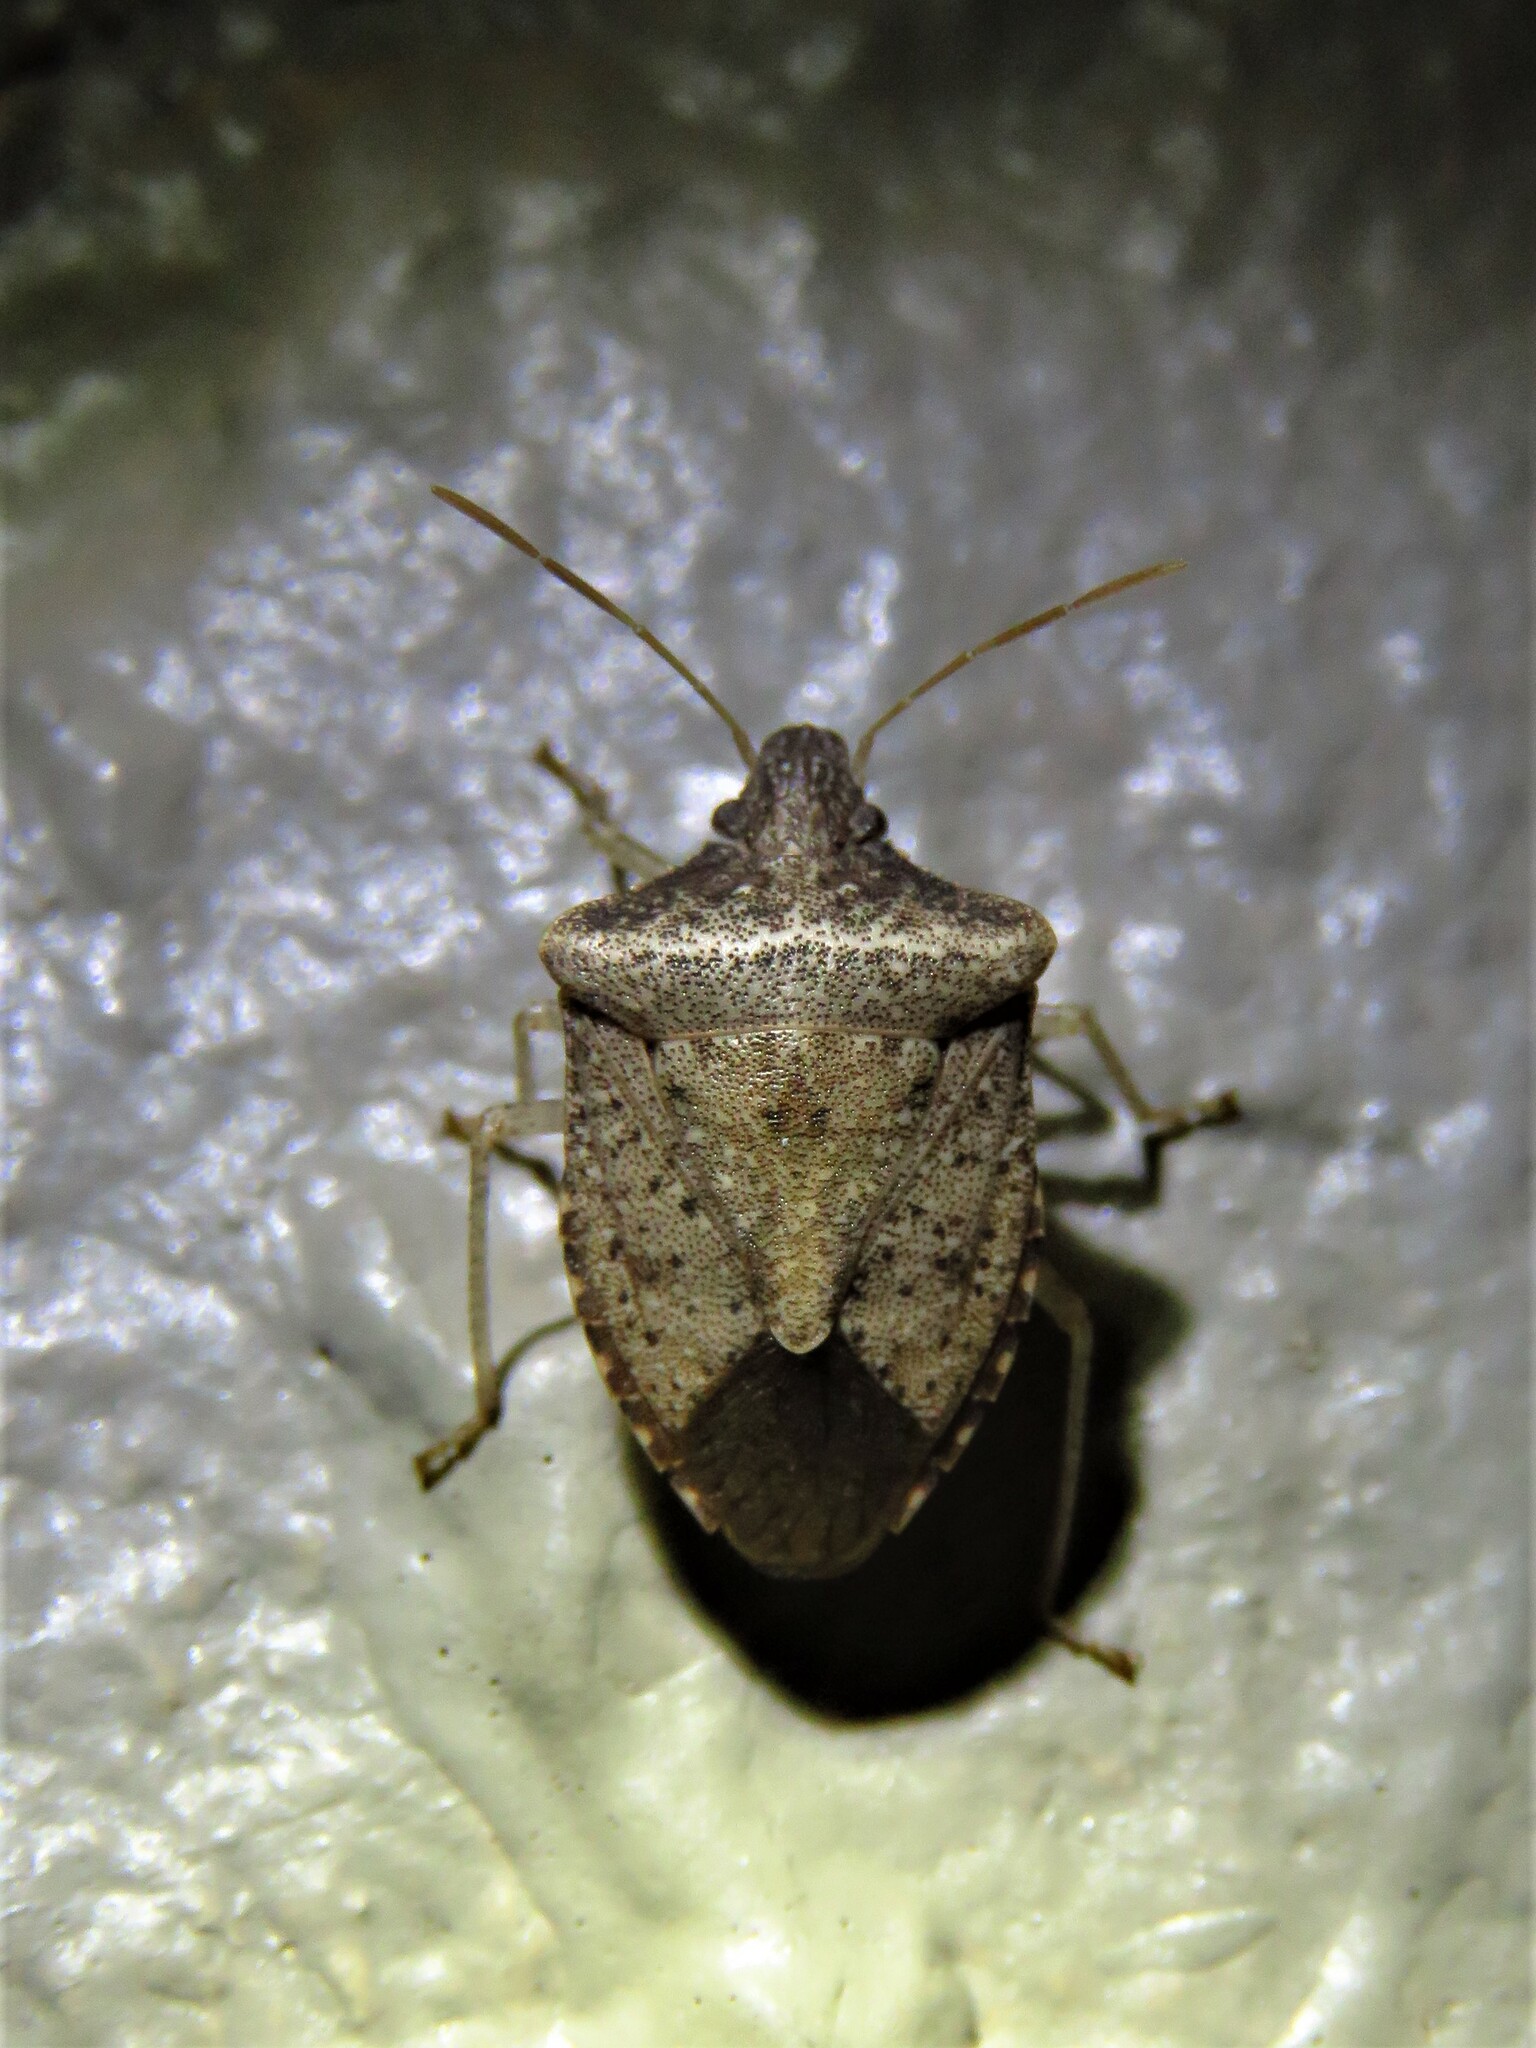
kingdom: Animalia
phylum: Arthropoda
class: Insecta
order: Hemiptera
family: Pentatomidae
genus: Euschistus
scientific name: Euschistus obscurus
